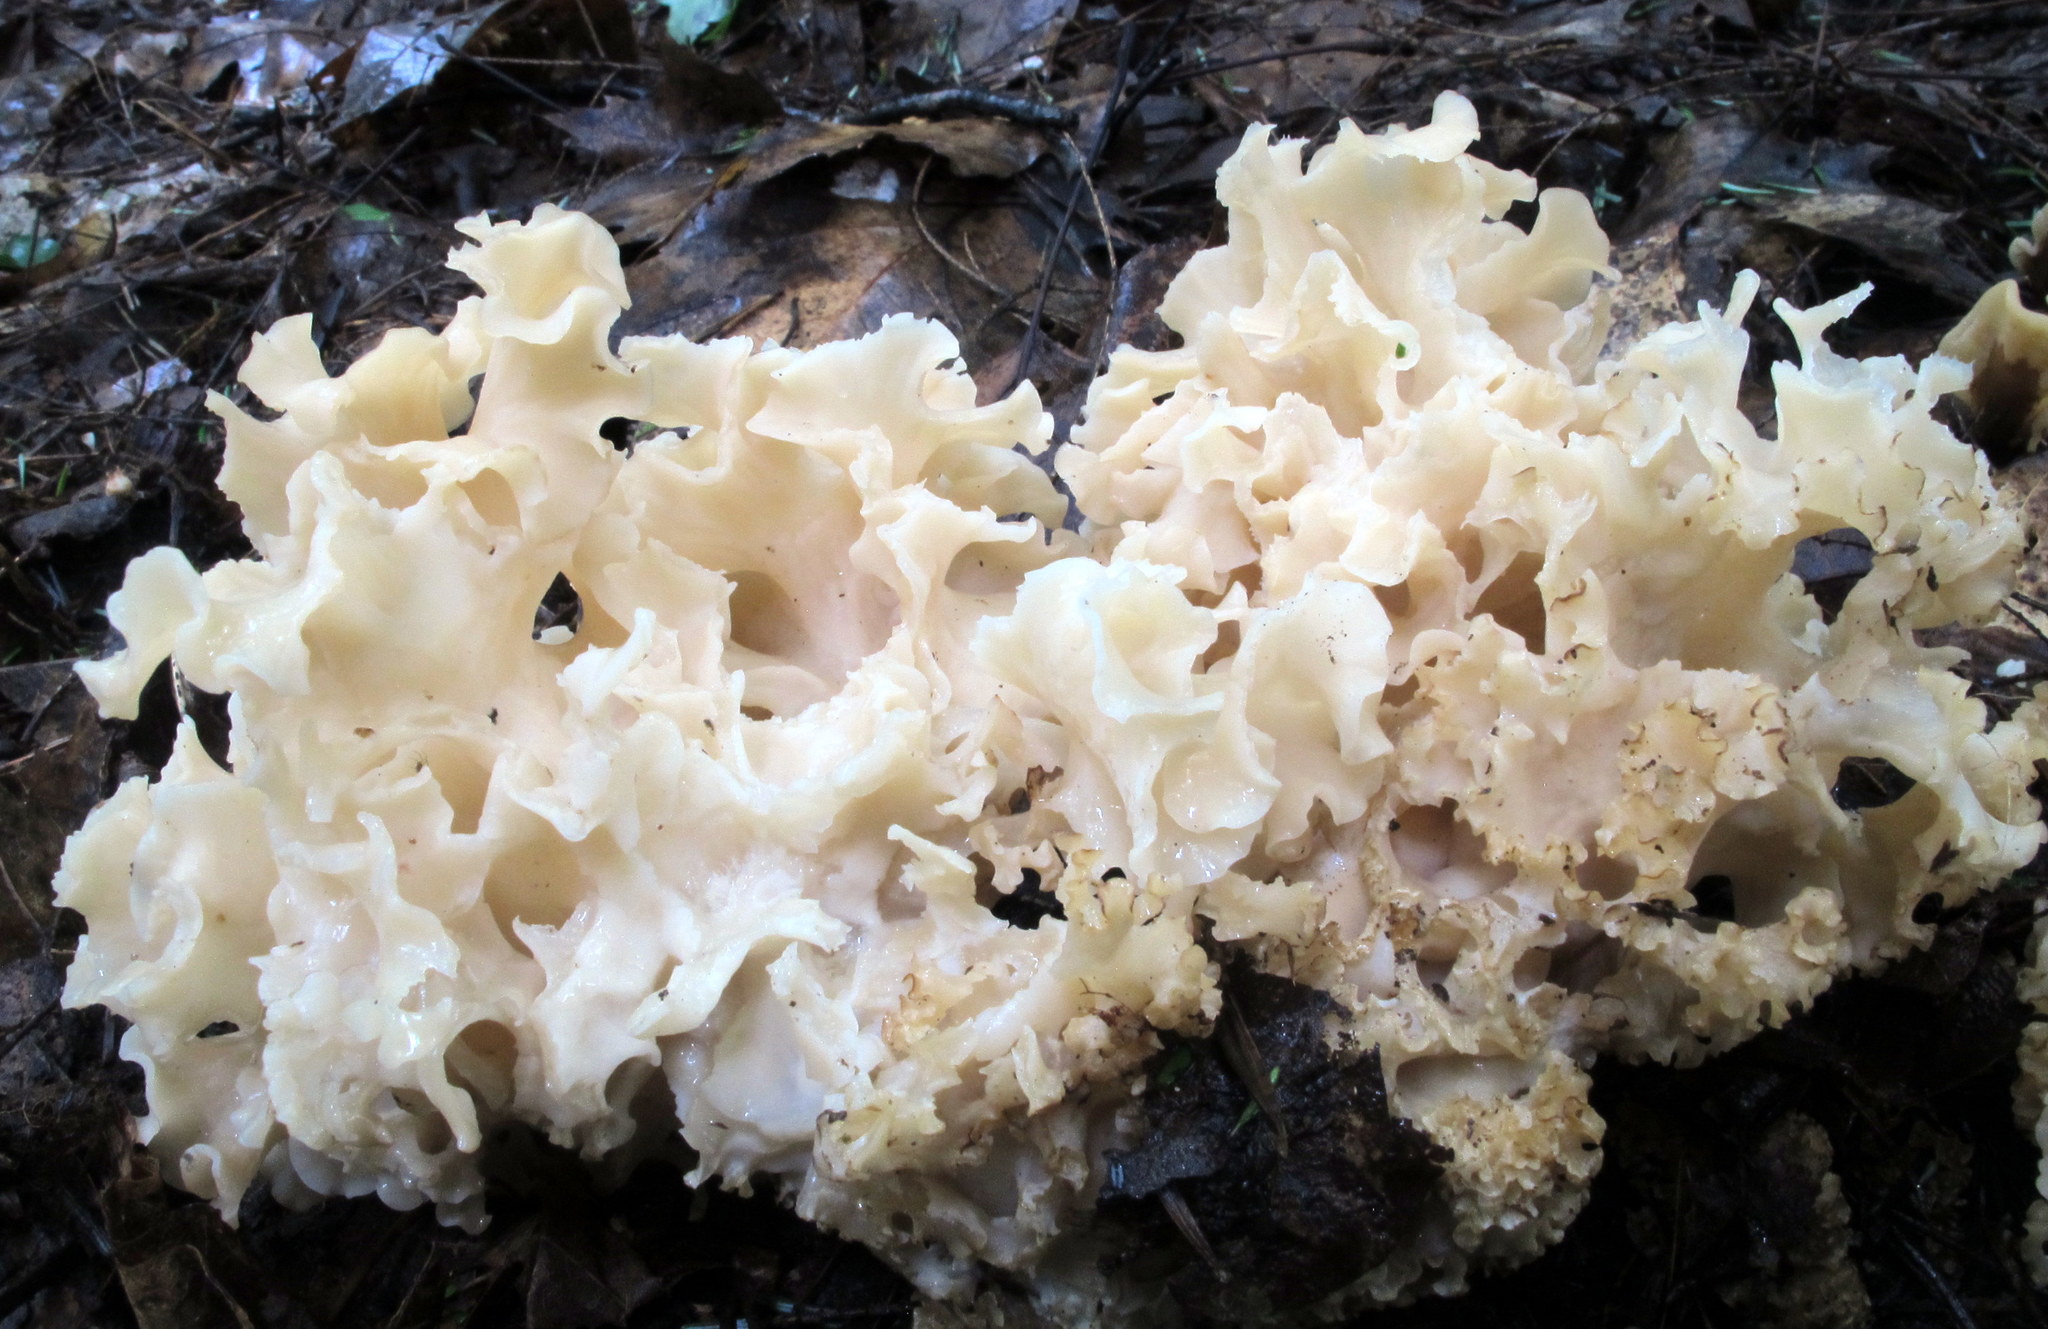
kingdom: Fungi
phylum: Basidiomycota
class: Agaricomycetes
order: Polyporales
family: Sparassidaceae
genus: Sparassis
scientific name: Sparassis americana
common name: American cauliflower mushroom
